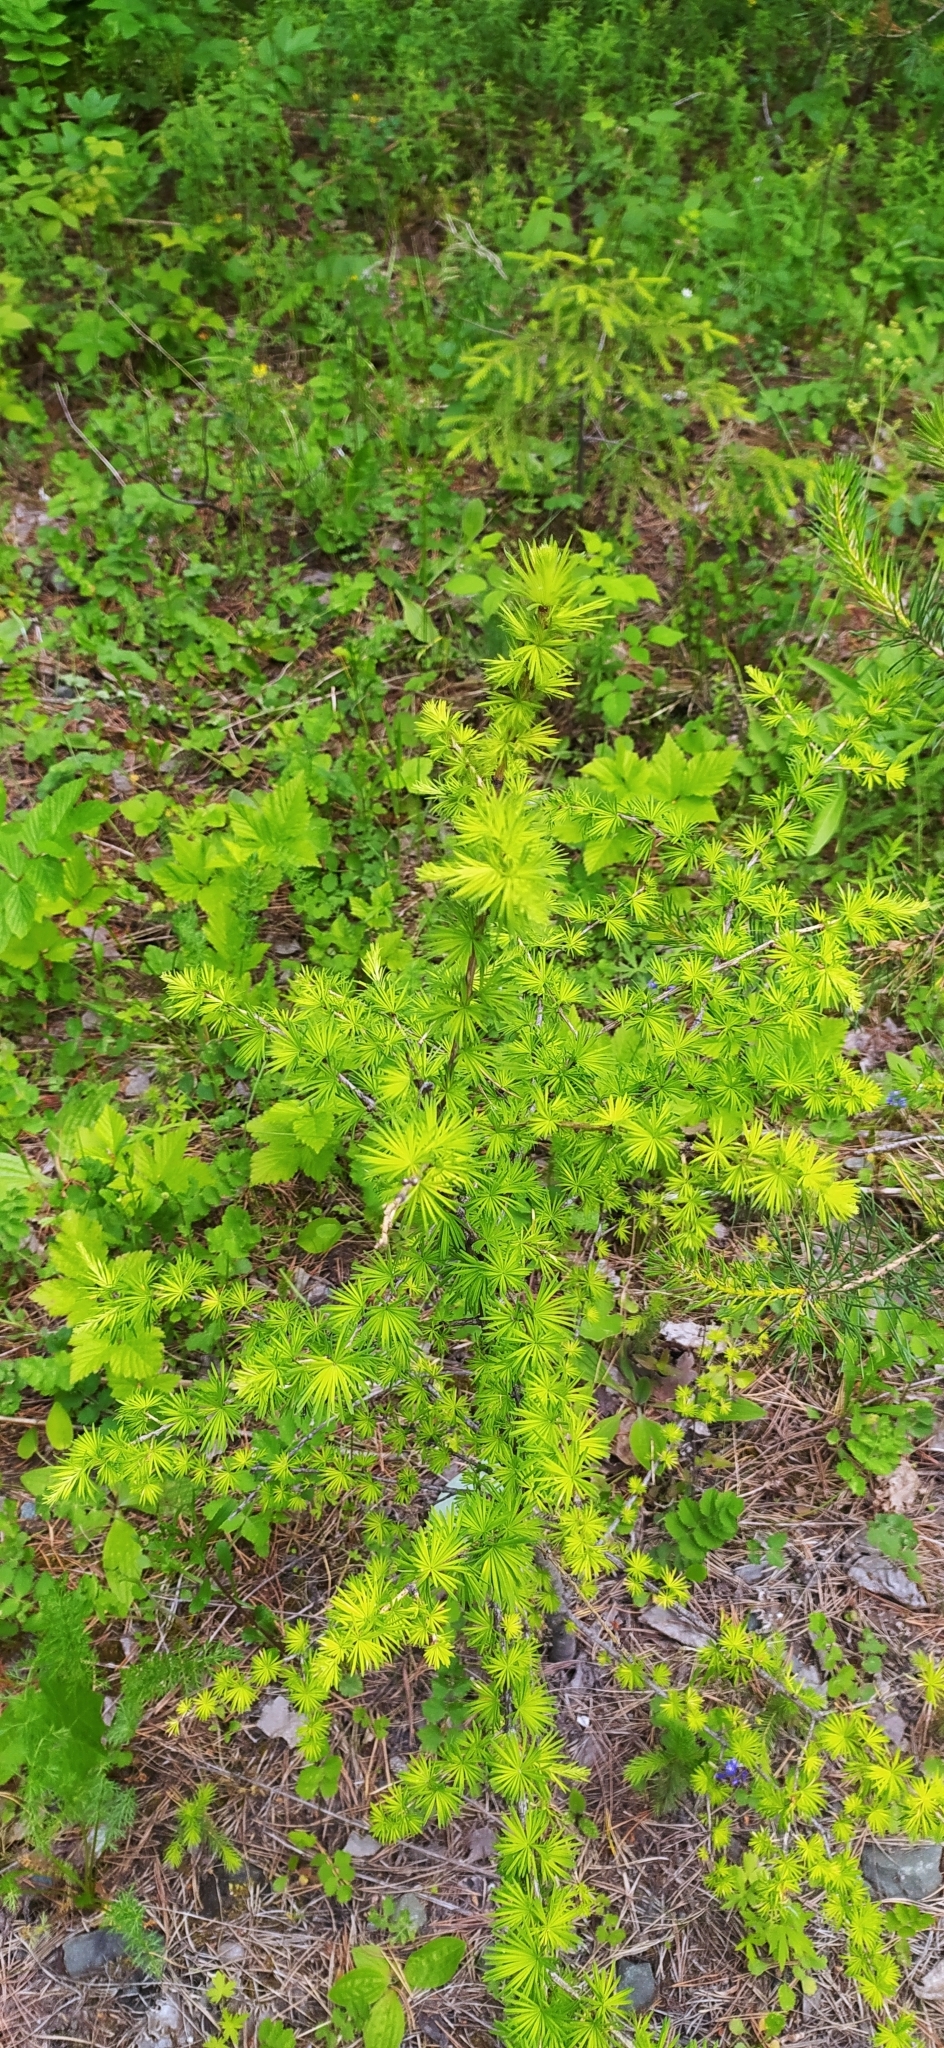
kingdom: Plantae
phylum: Tracheophyta
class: Pinopsida
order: Pinales
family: Pinaceae
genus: Larix
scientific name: Larix sibirica
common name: Siberian larch
